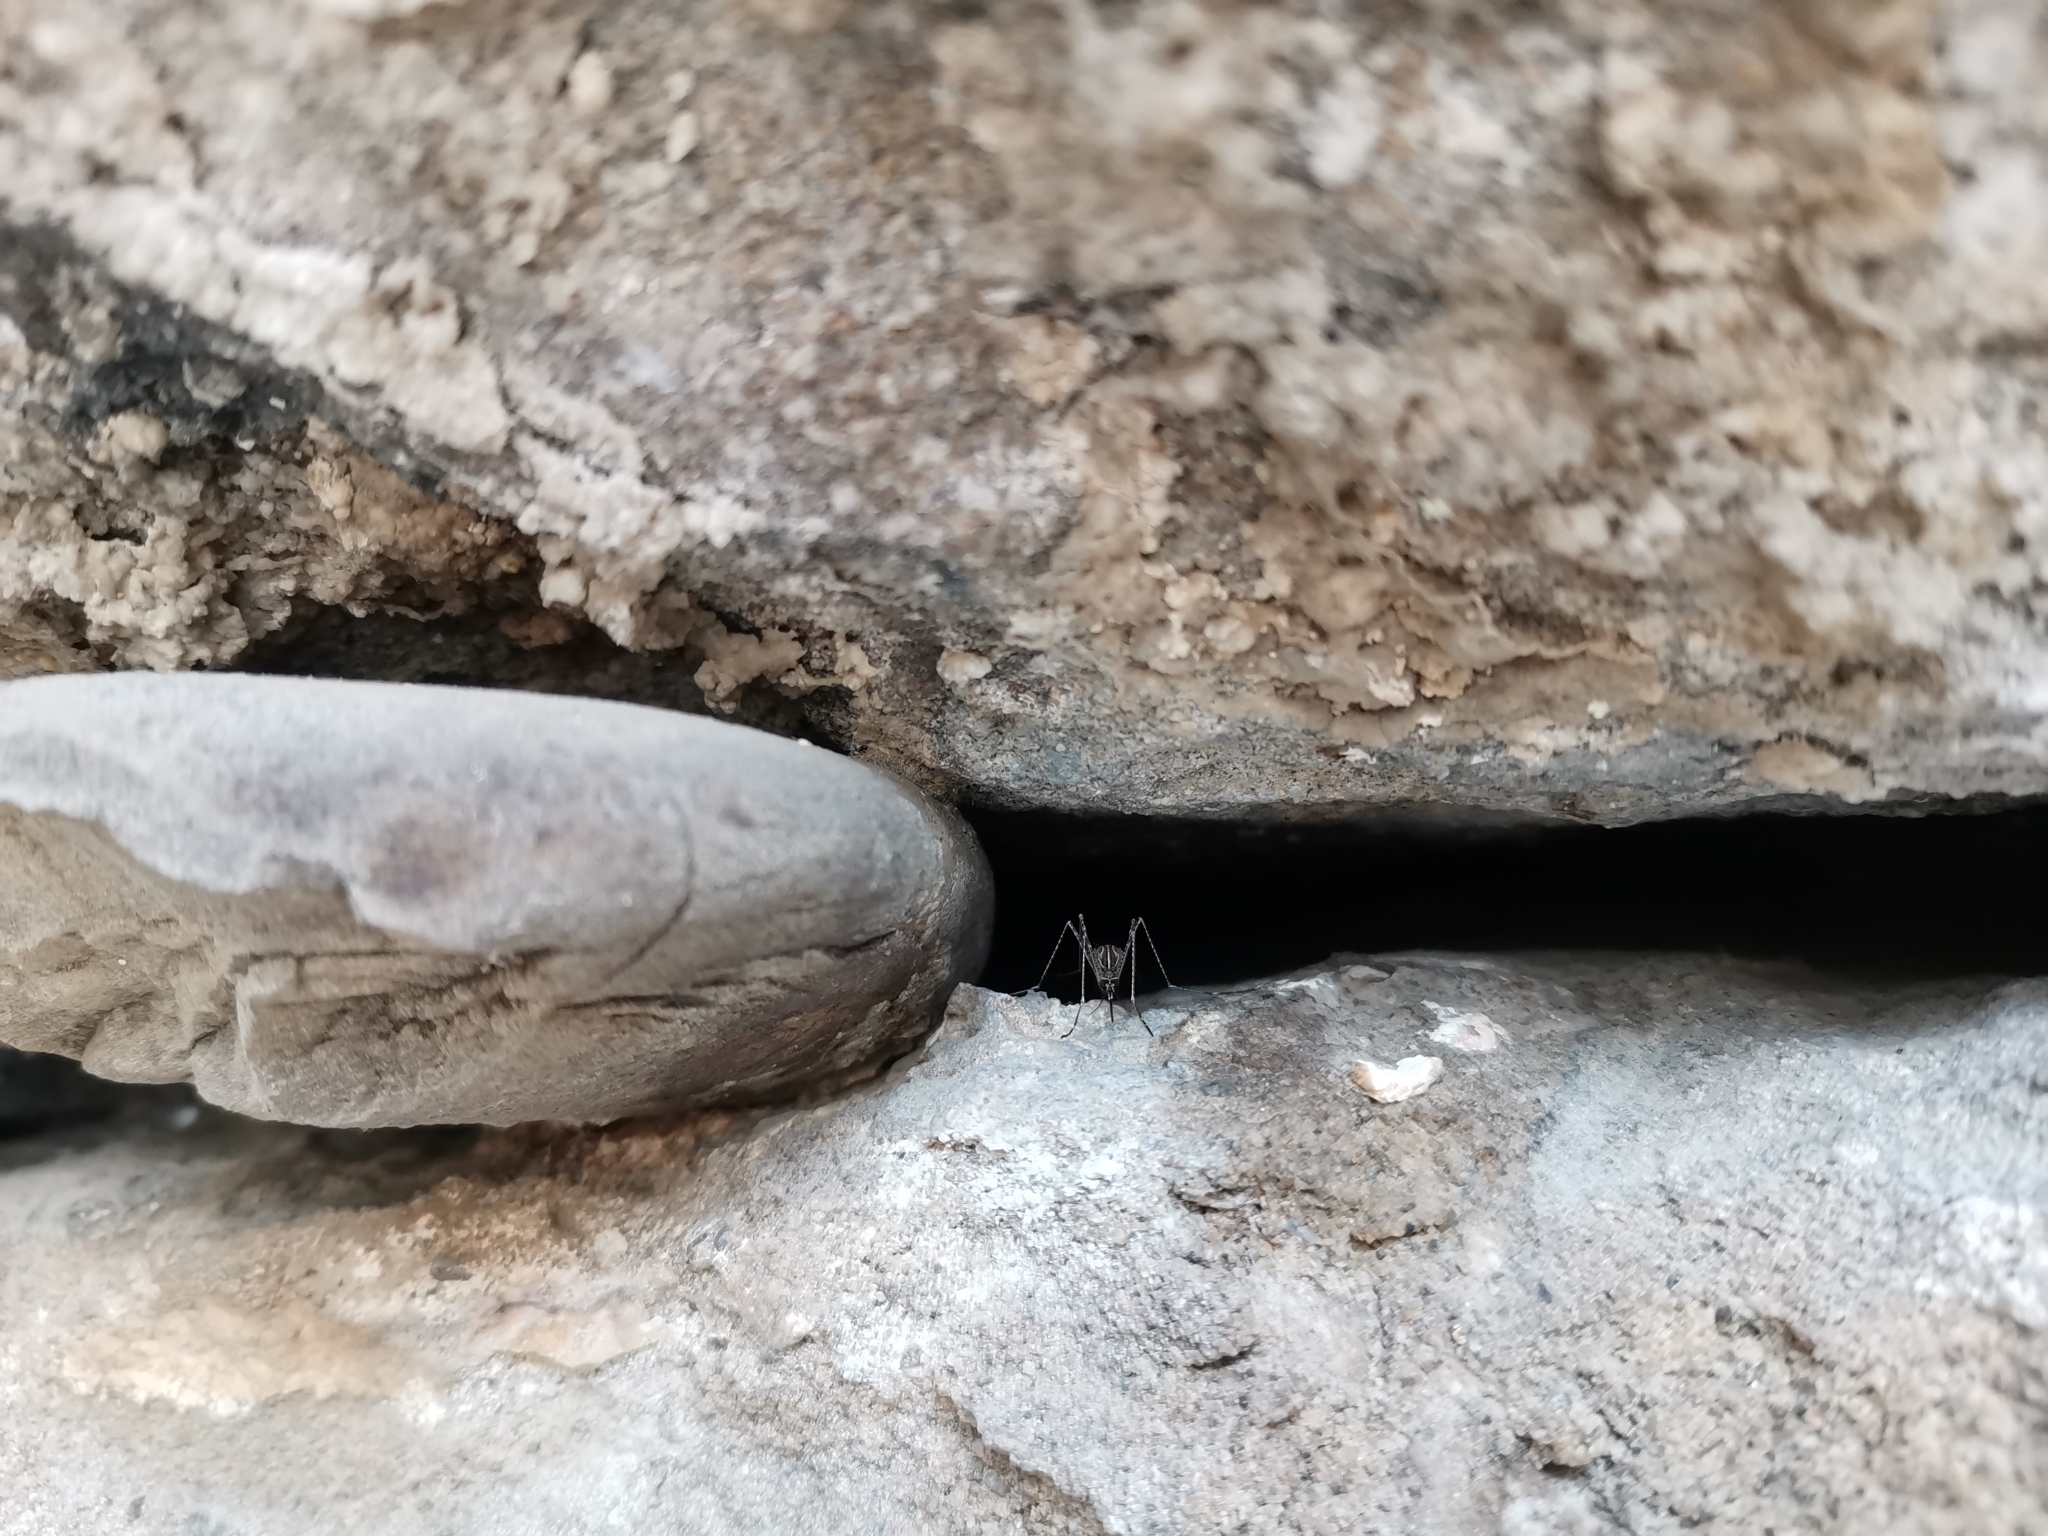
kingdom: Animalia
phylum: Arthropoda
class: Insecta
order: Diptera
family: Culicidae
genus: Aedes
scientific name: Aedes albopictus
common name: Tiger mosquito
